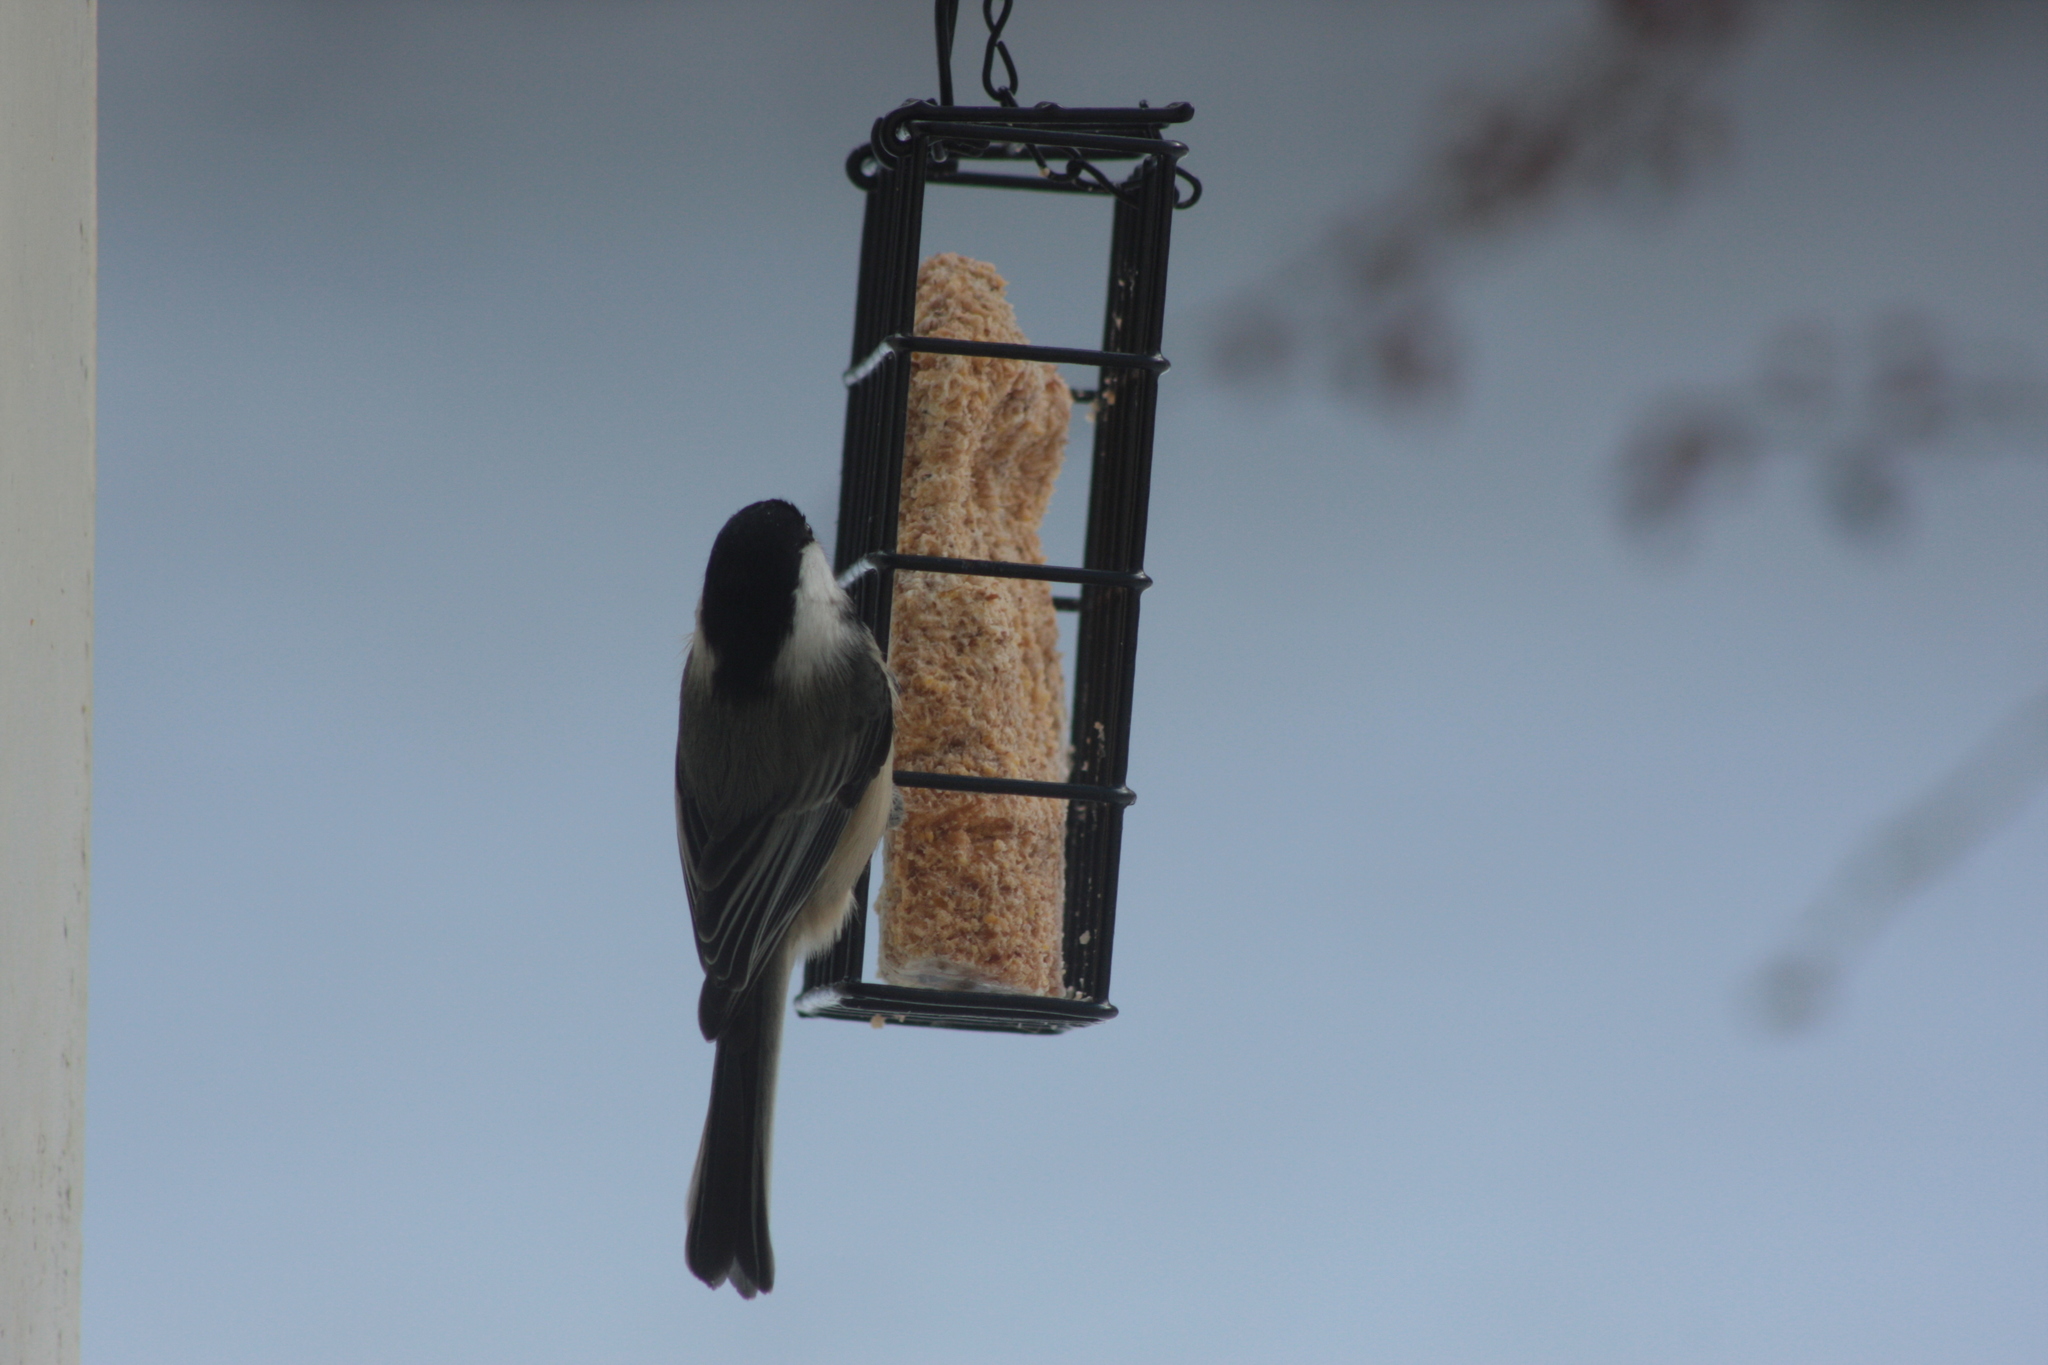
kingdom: Animalia
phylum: Chordata
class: Aves
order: Passeriformes
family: Paridae
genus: Poecile
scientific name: Poecile atricapillus
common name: Black-capped chickadee
